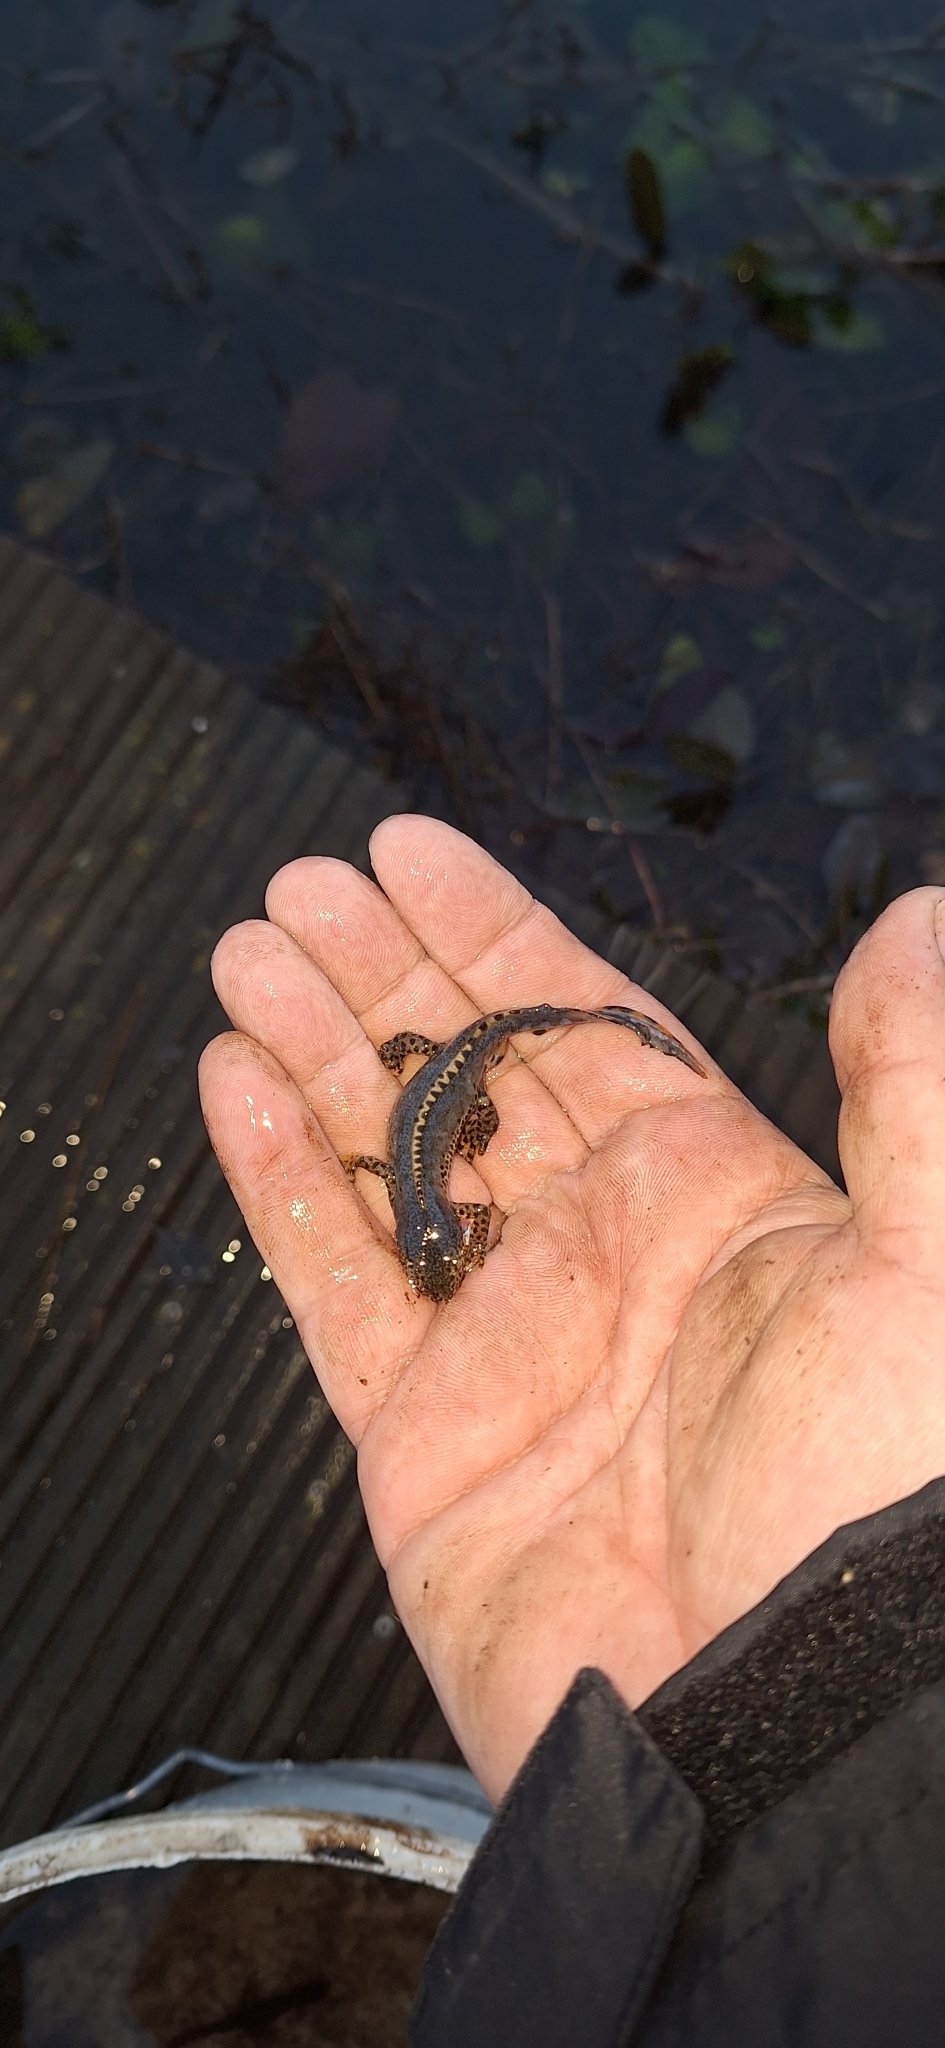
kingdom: Animalia
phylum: Chordata
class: Amphibia
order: Caudata
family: Salamandridae
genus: Ichthyosaura
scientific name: Ichthyosaura alpestris
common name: Alpine newt
